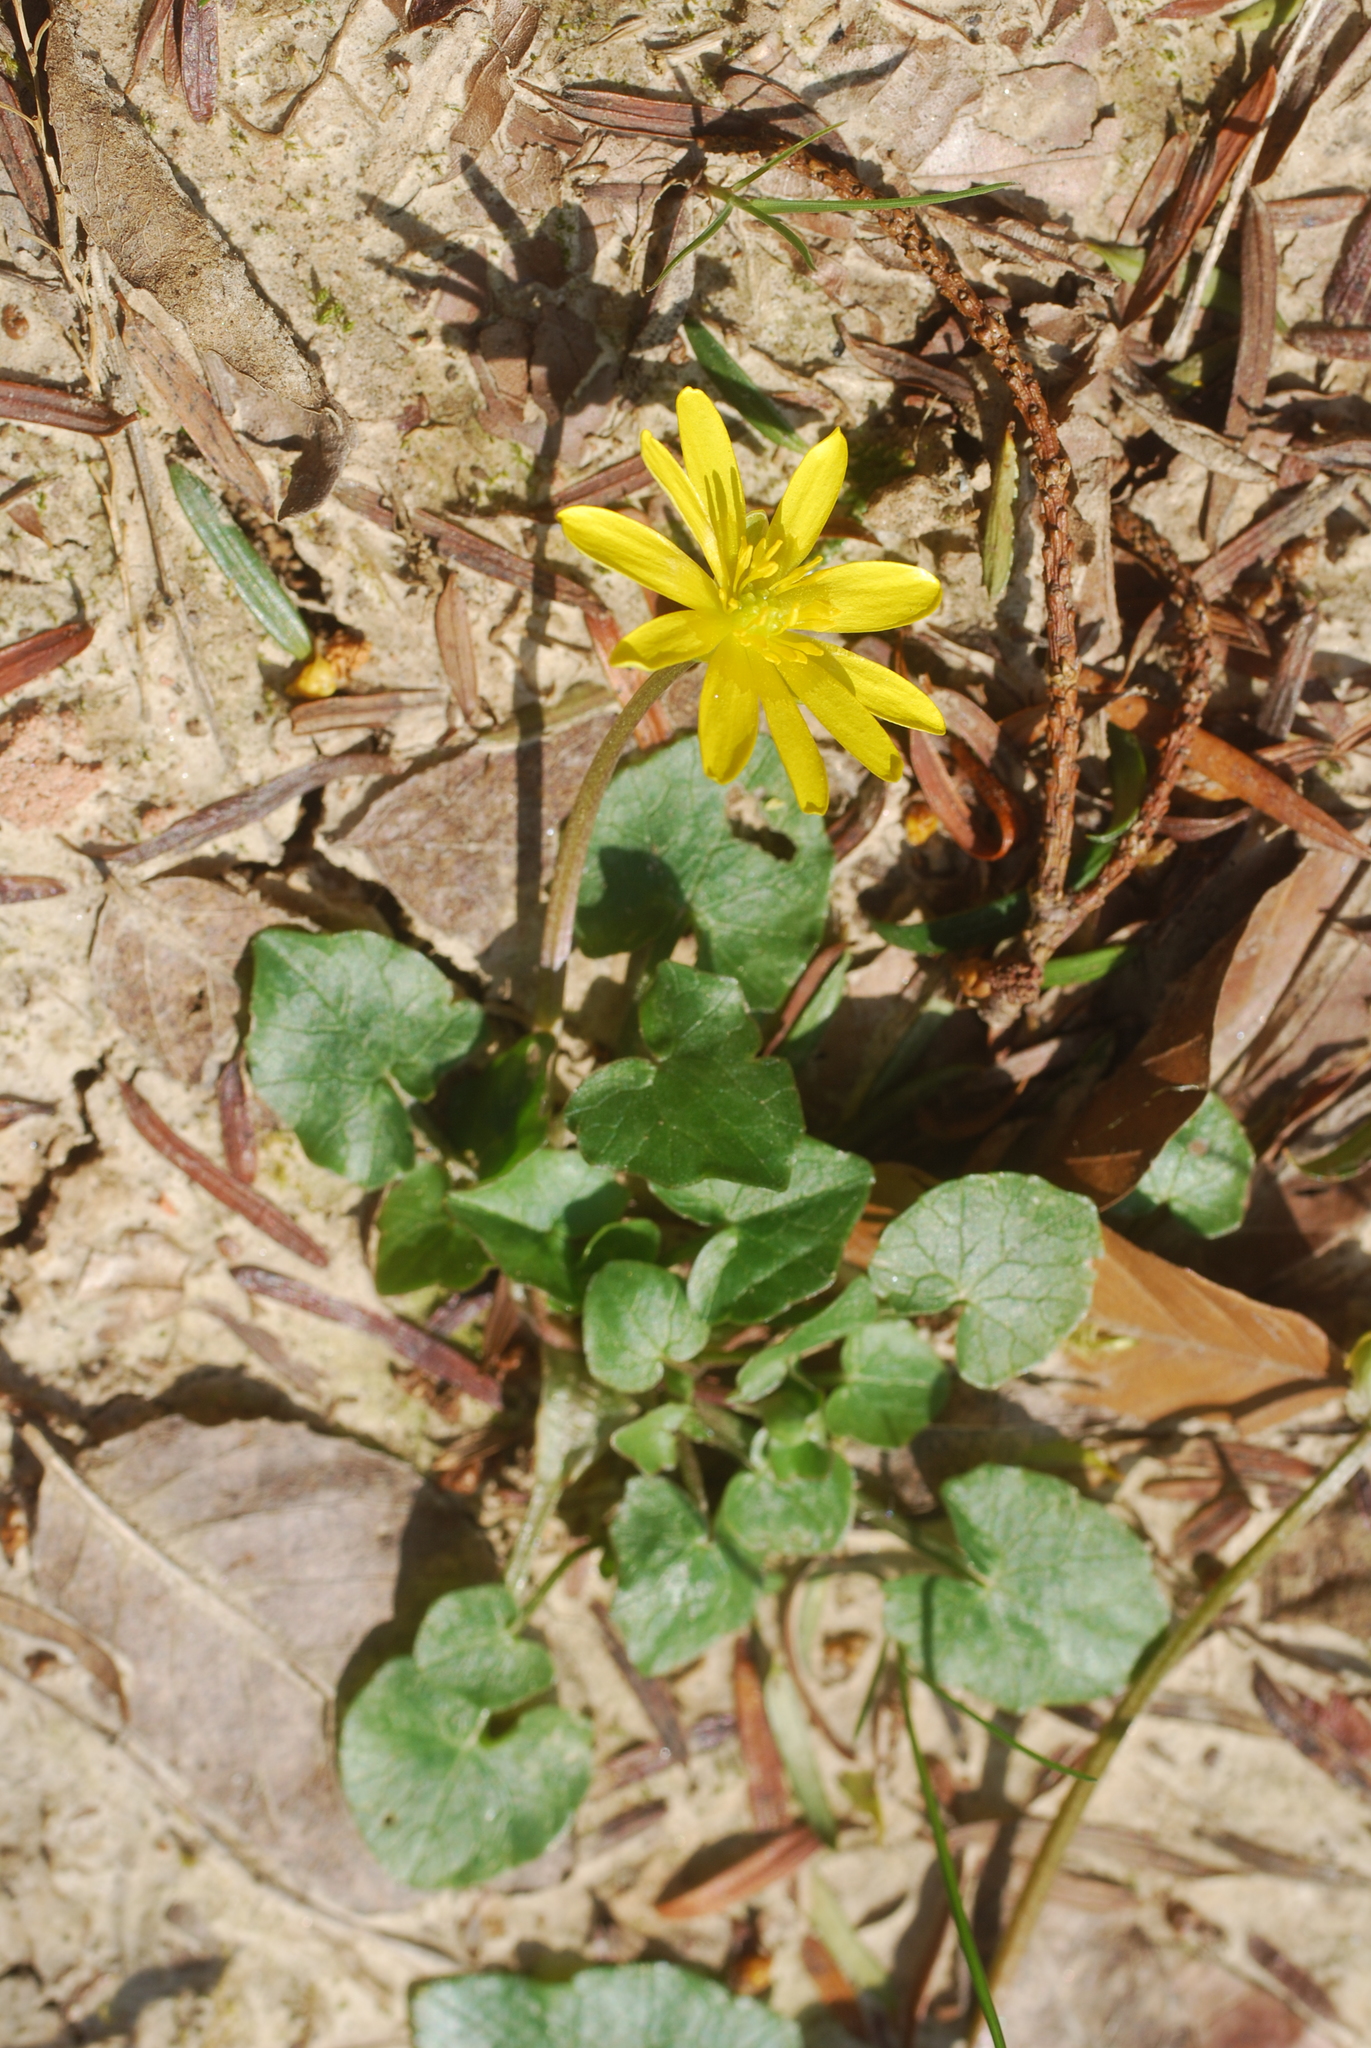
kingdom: Plantae
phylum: Tracheophyta
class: Magnoliopsida
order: Ranunculales
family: Ranunculaceae
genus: Ficaria
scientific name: Ficaria verna
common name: Lesser celandine
